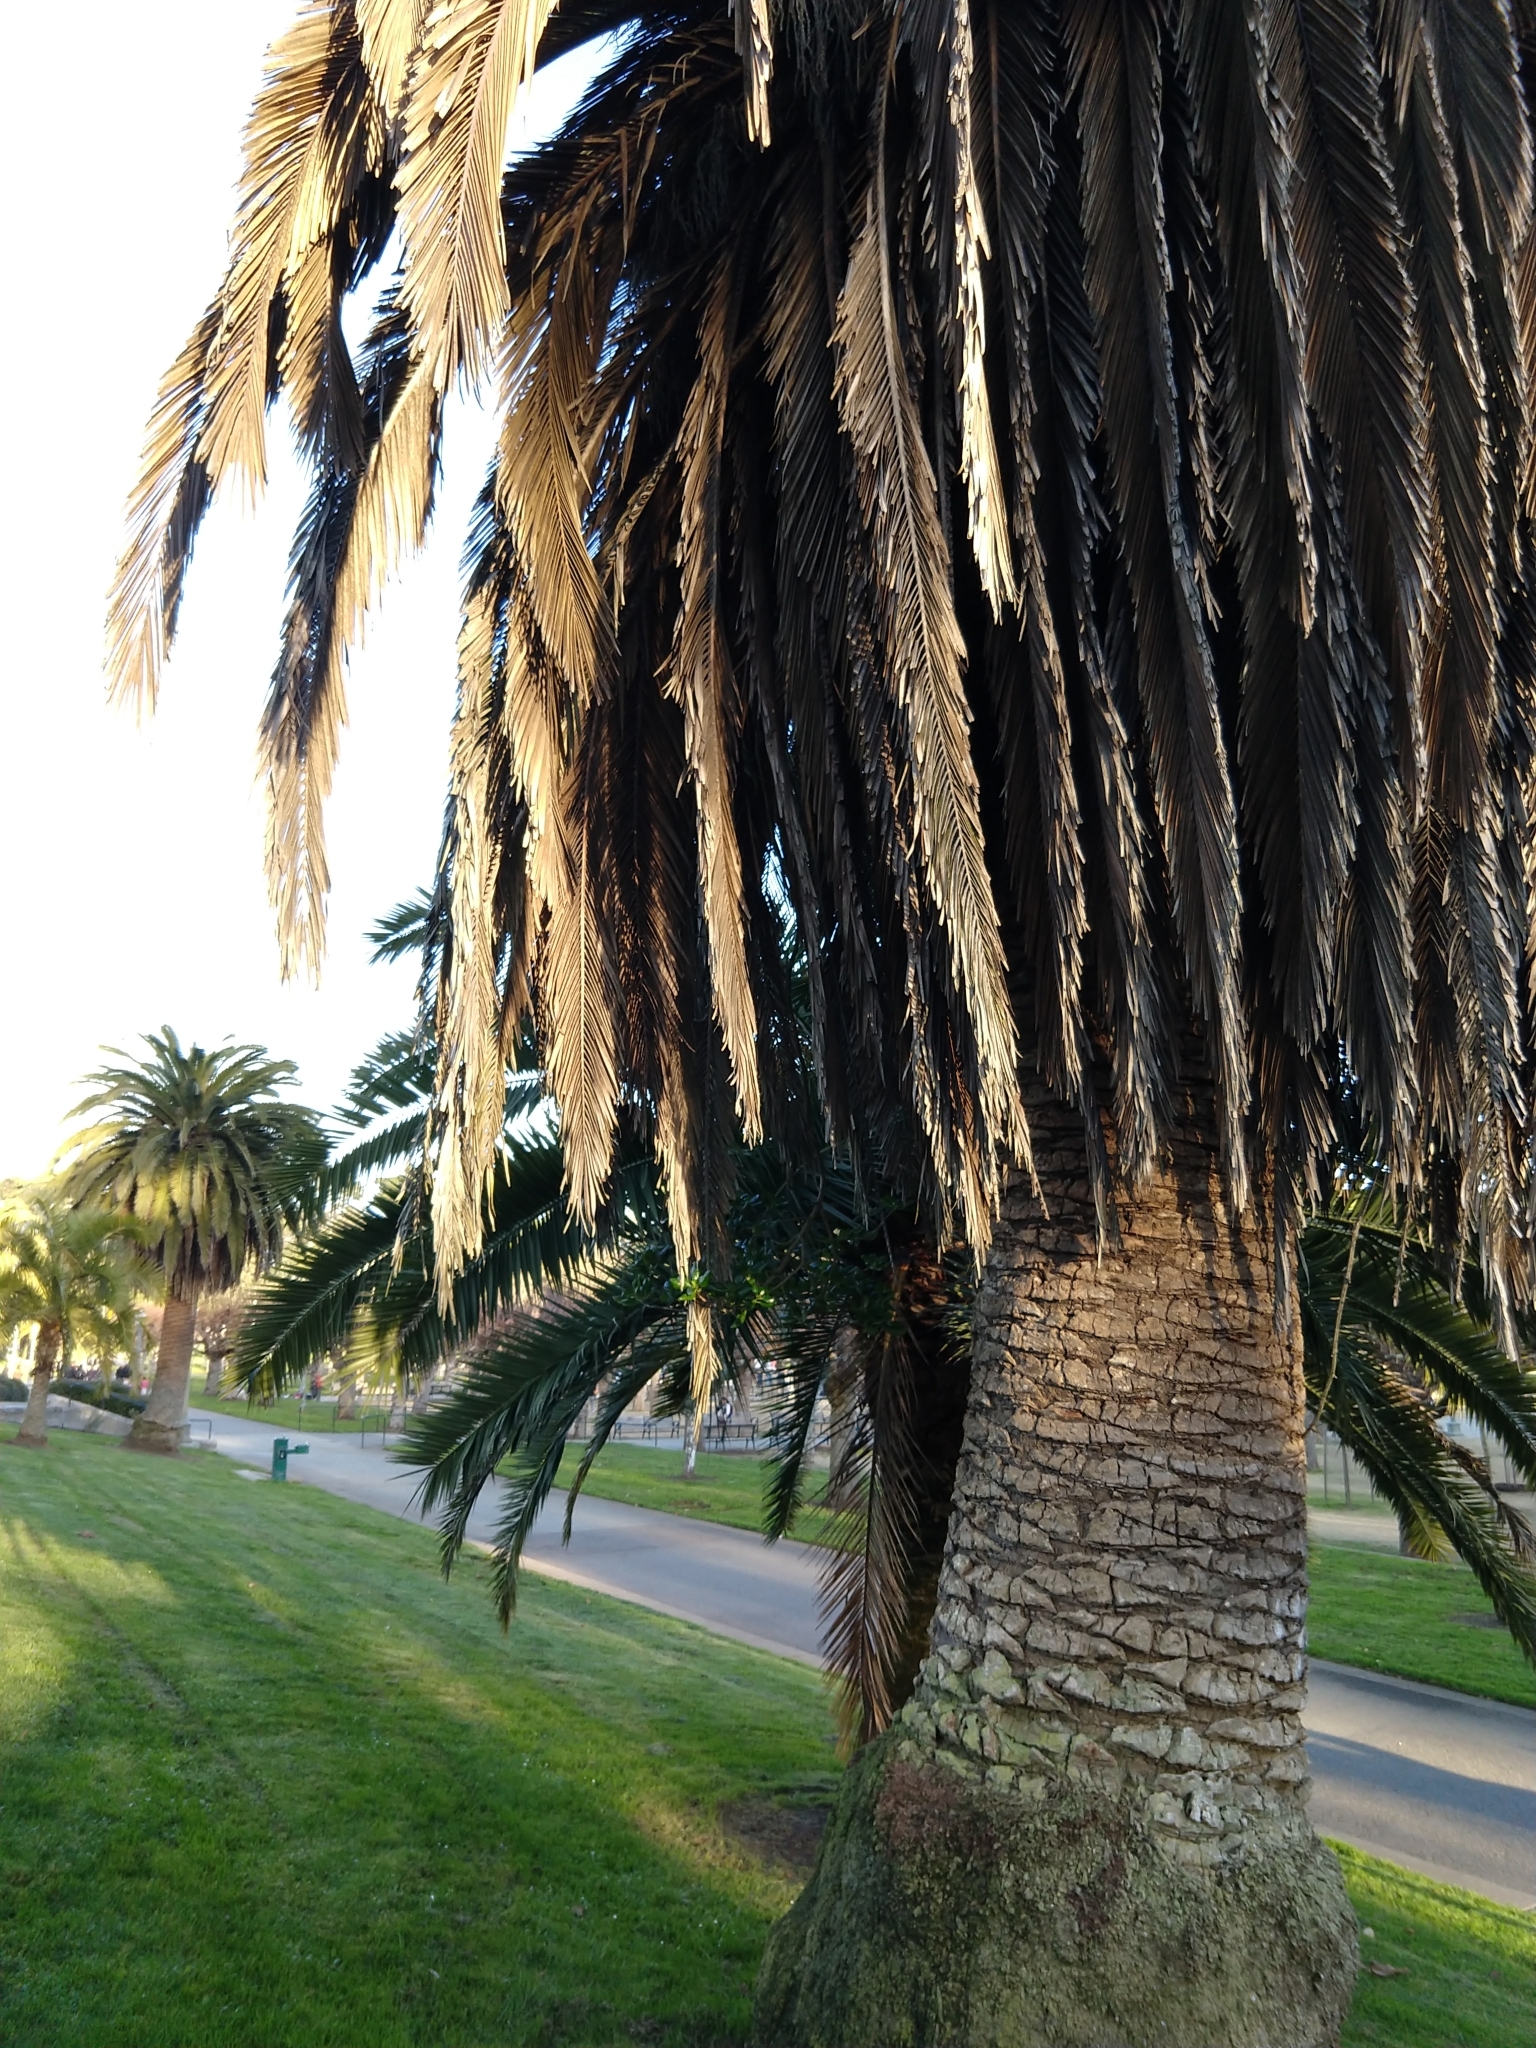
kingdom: Plantae
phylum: Tracheophyta
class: Magnoliopsida
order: Gentianales
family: Rubiaceae
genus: Coprosma
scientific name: Coprosma repens
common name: Tree bedstraw
